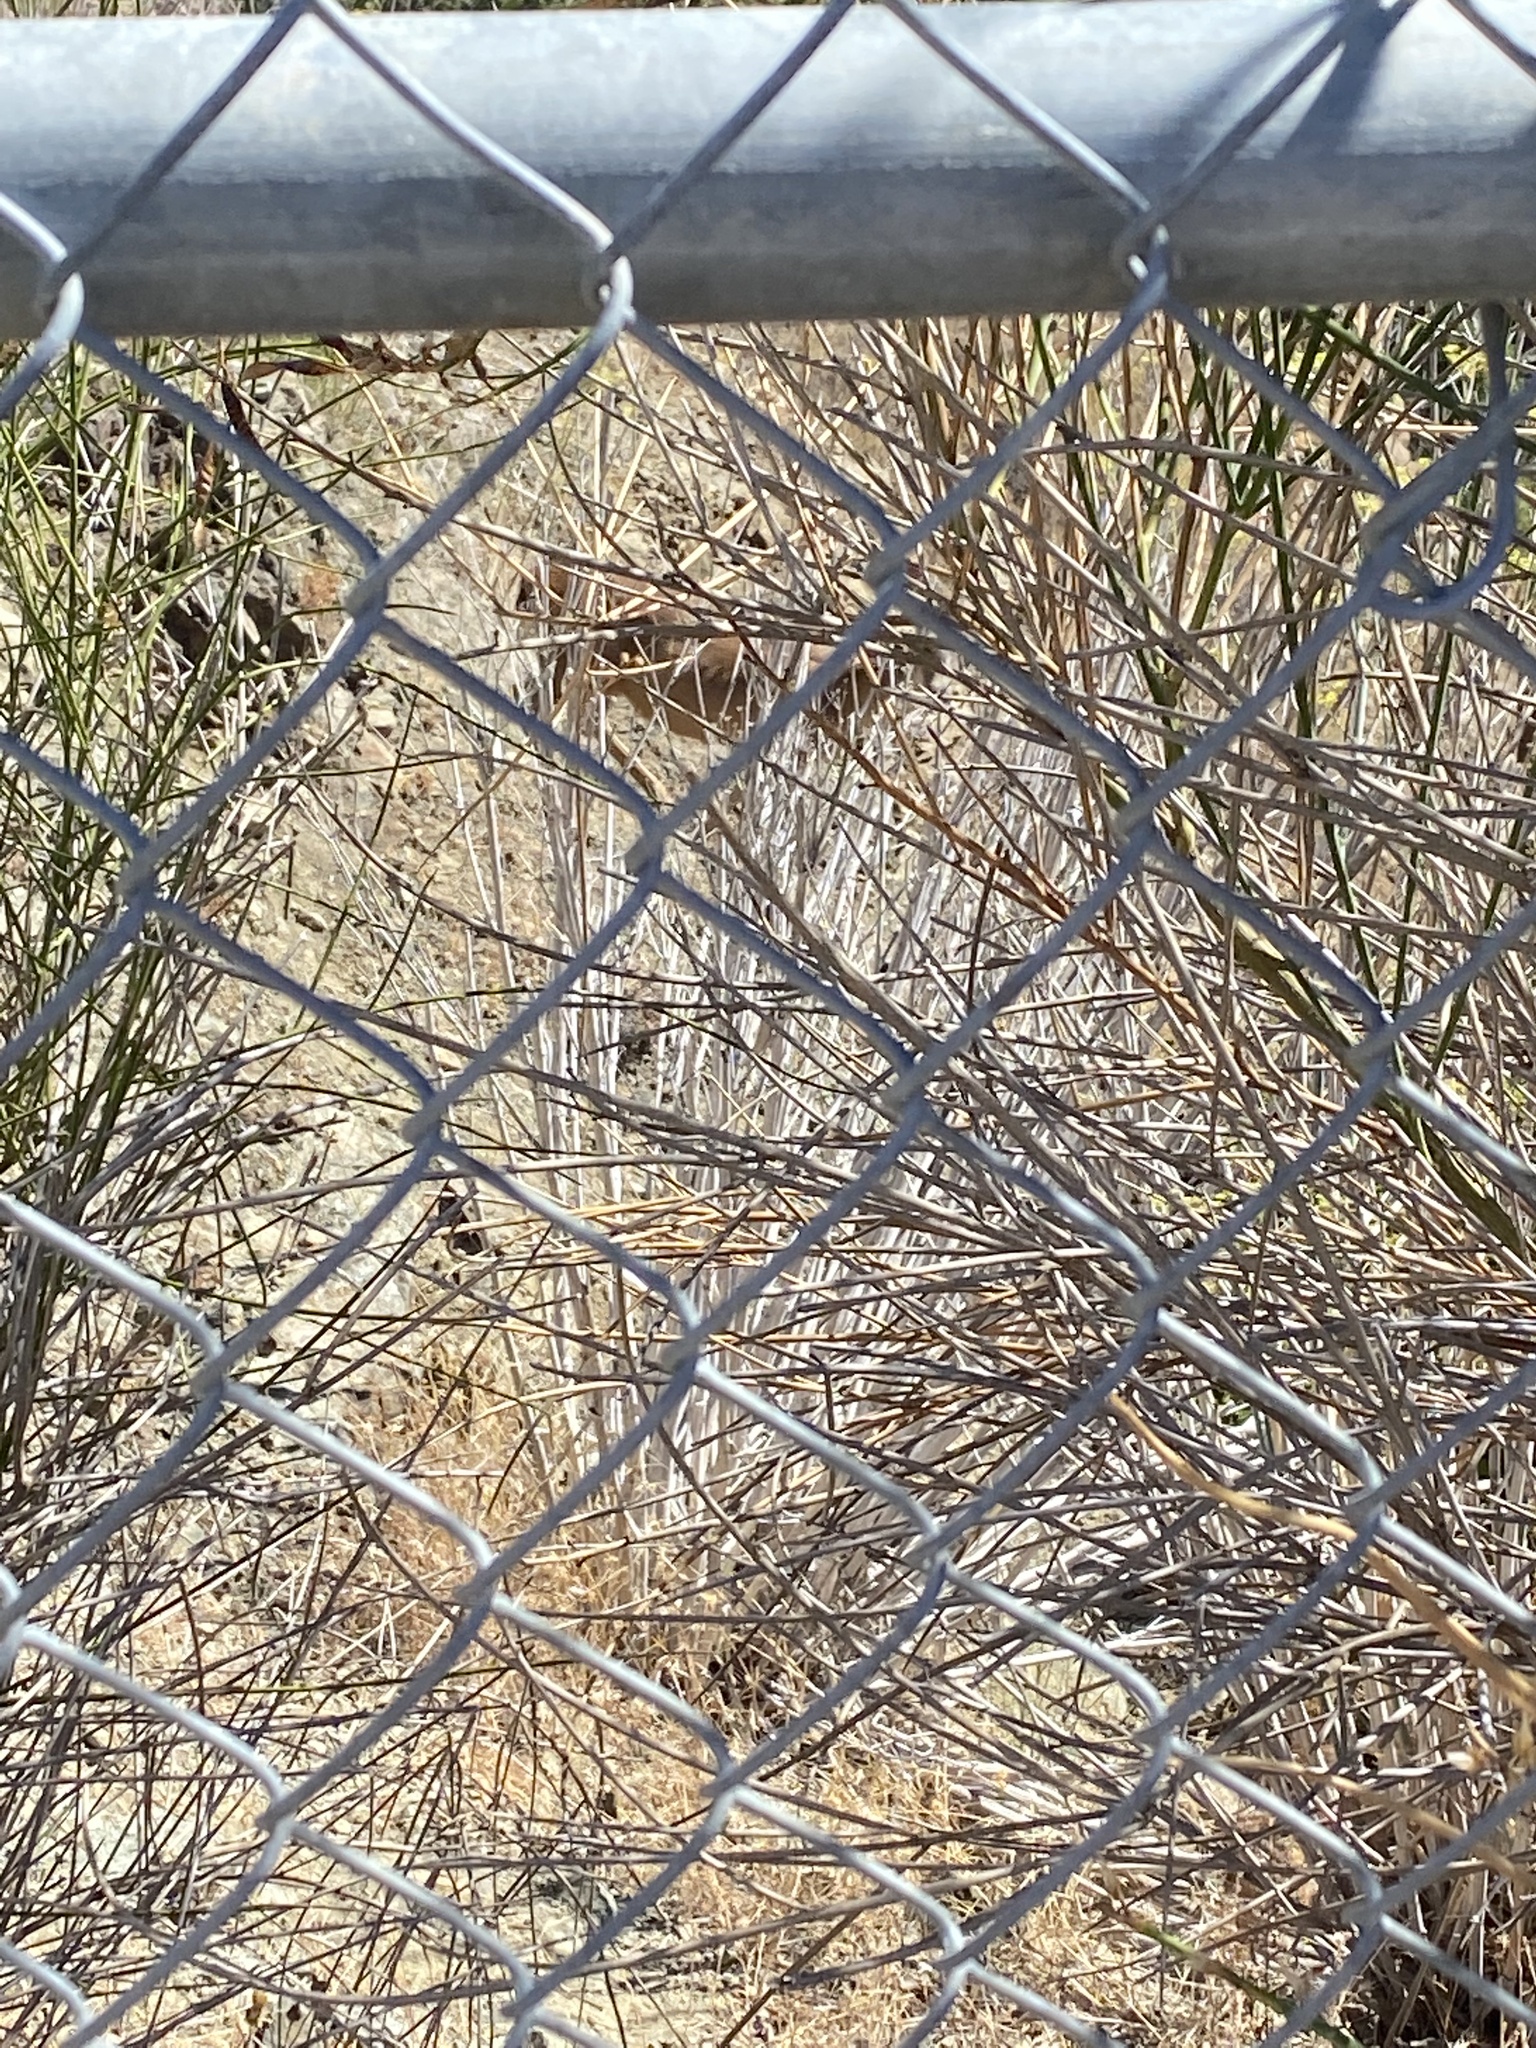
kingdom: Animalia
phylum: Chordata
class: Mammalia
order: Artiodactyla
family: Cervidae
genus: Odocoileus
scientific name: Odocoileus hemionus
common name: Mule deer
